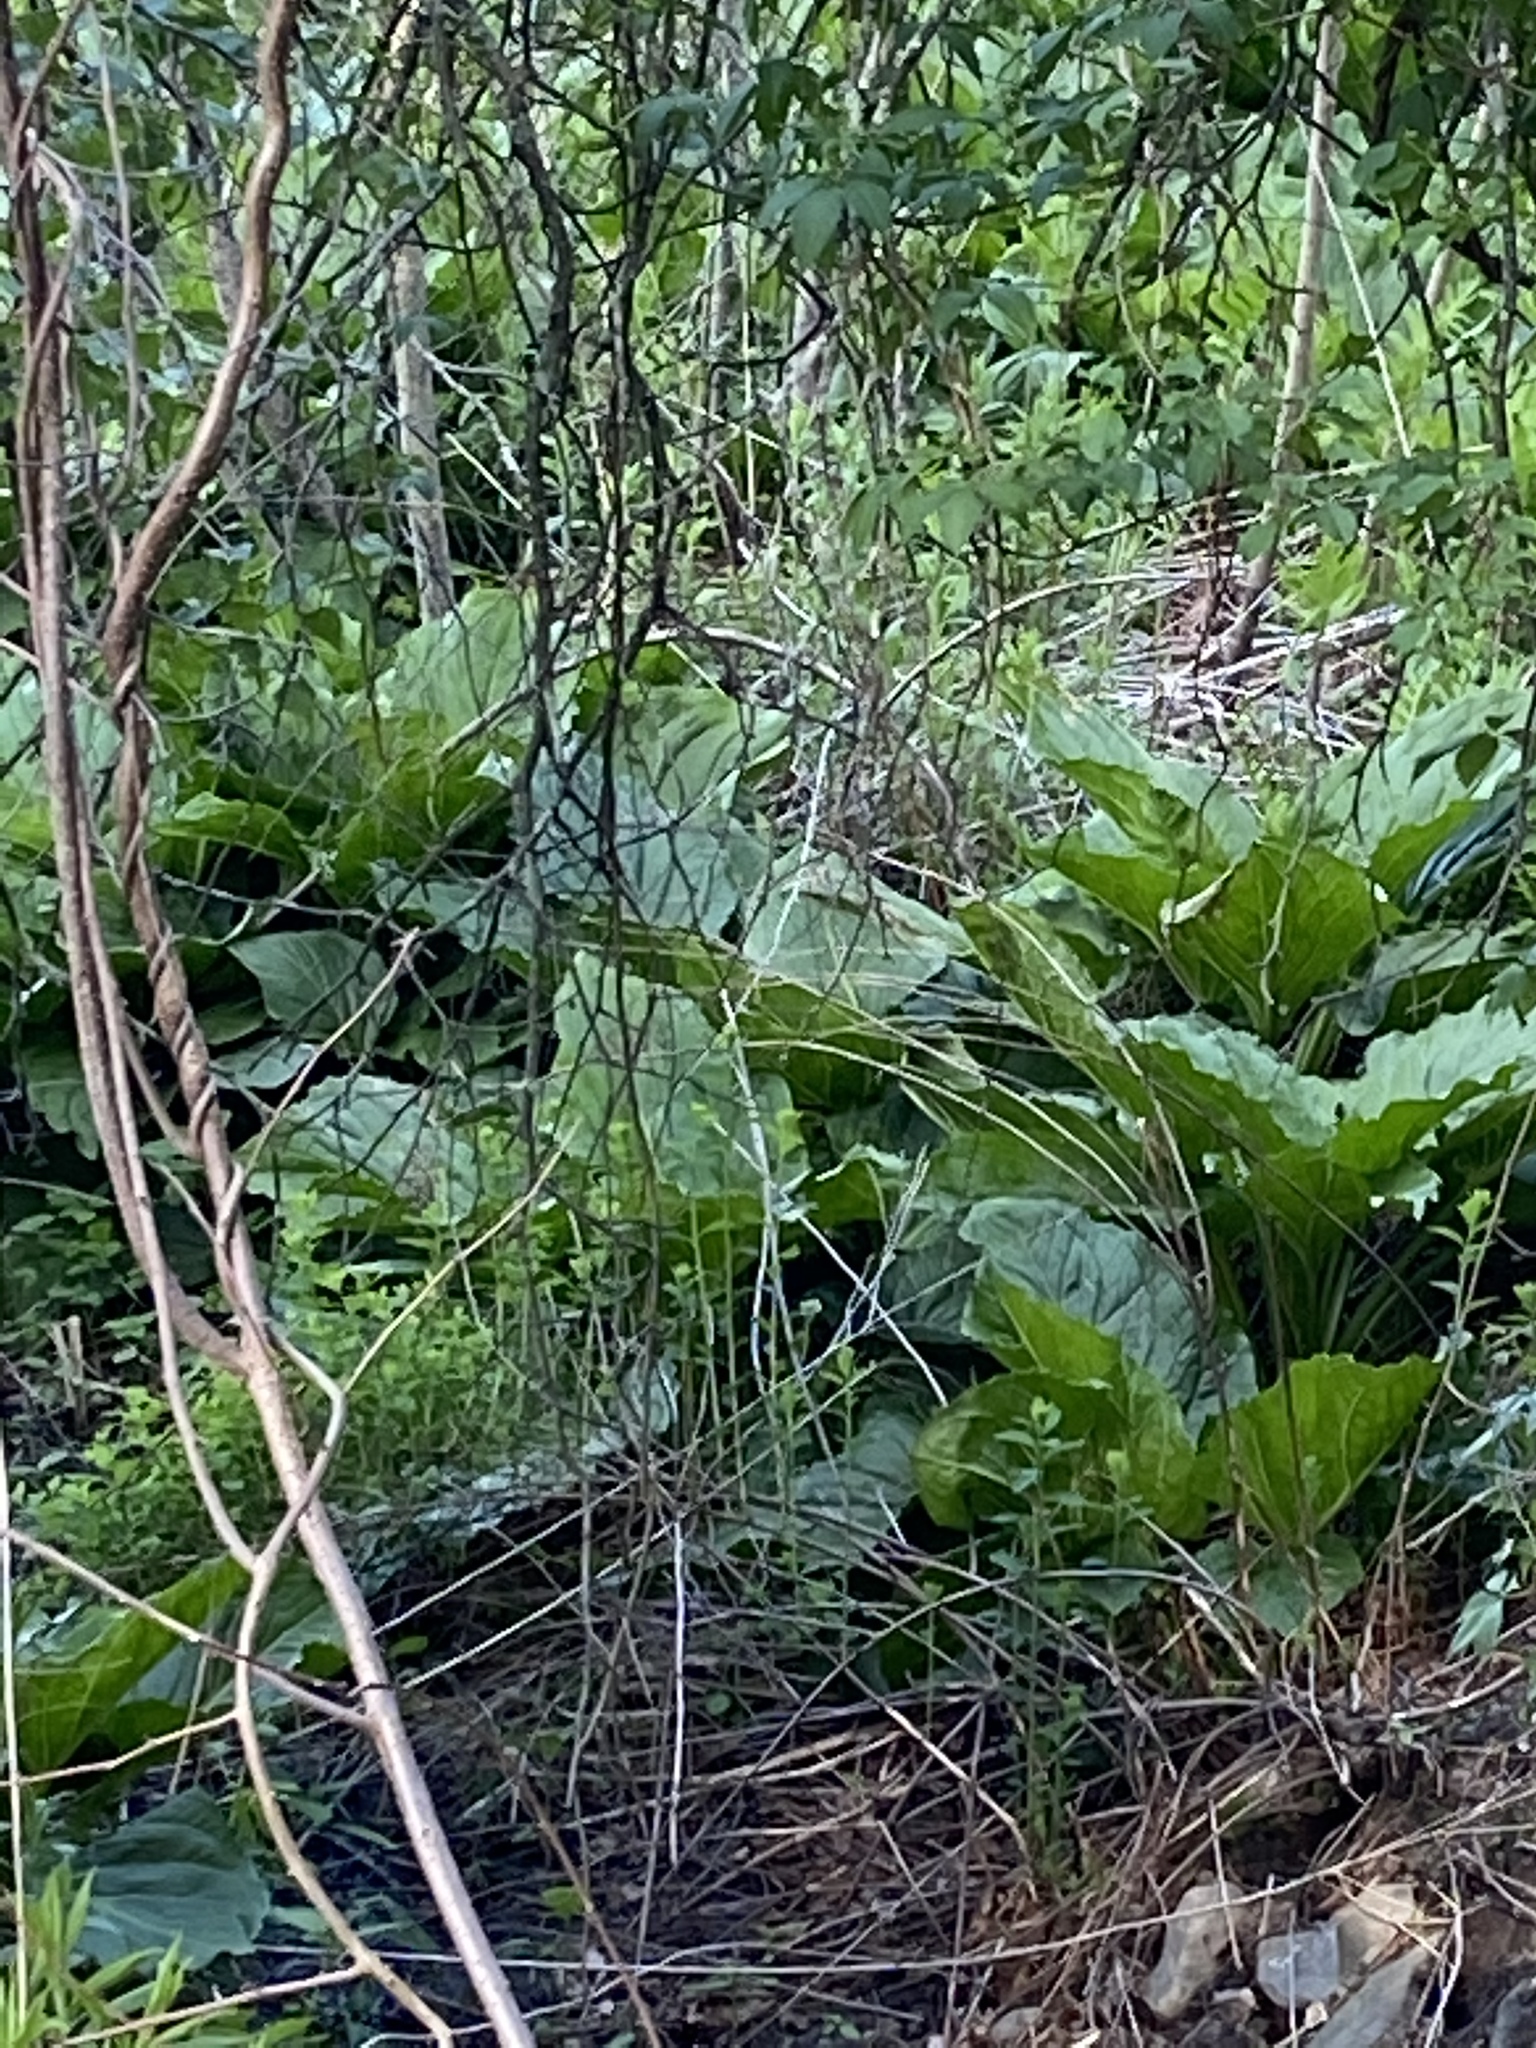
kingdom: Plantae
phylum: Tracheophyta
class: Liliopsida
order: Alismatales
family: Araceae
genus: Symplocarpus
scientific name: Symplocarpus foetidus
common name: Eastern skunk cabbage
